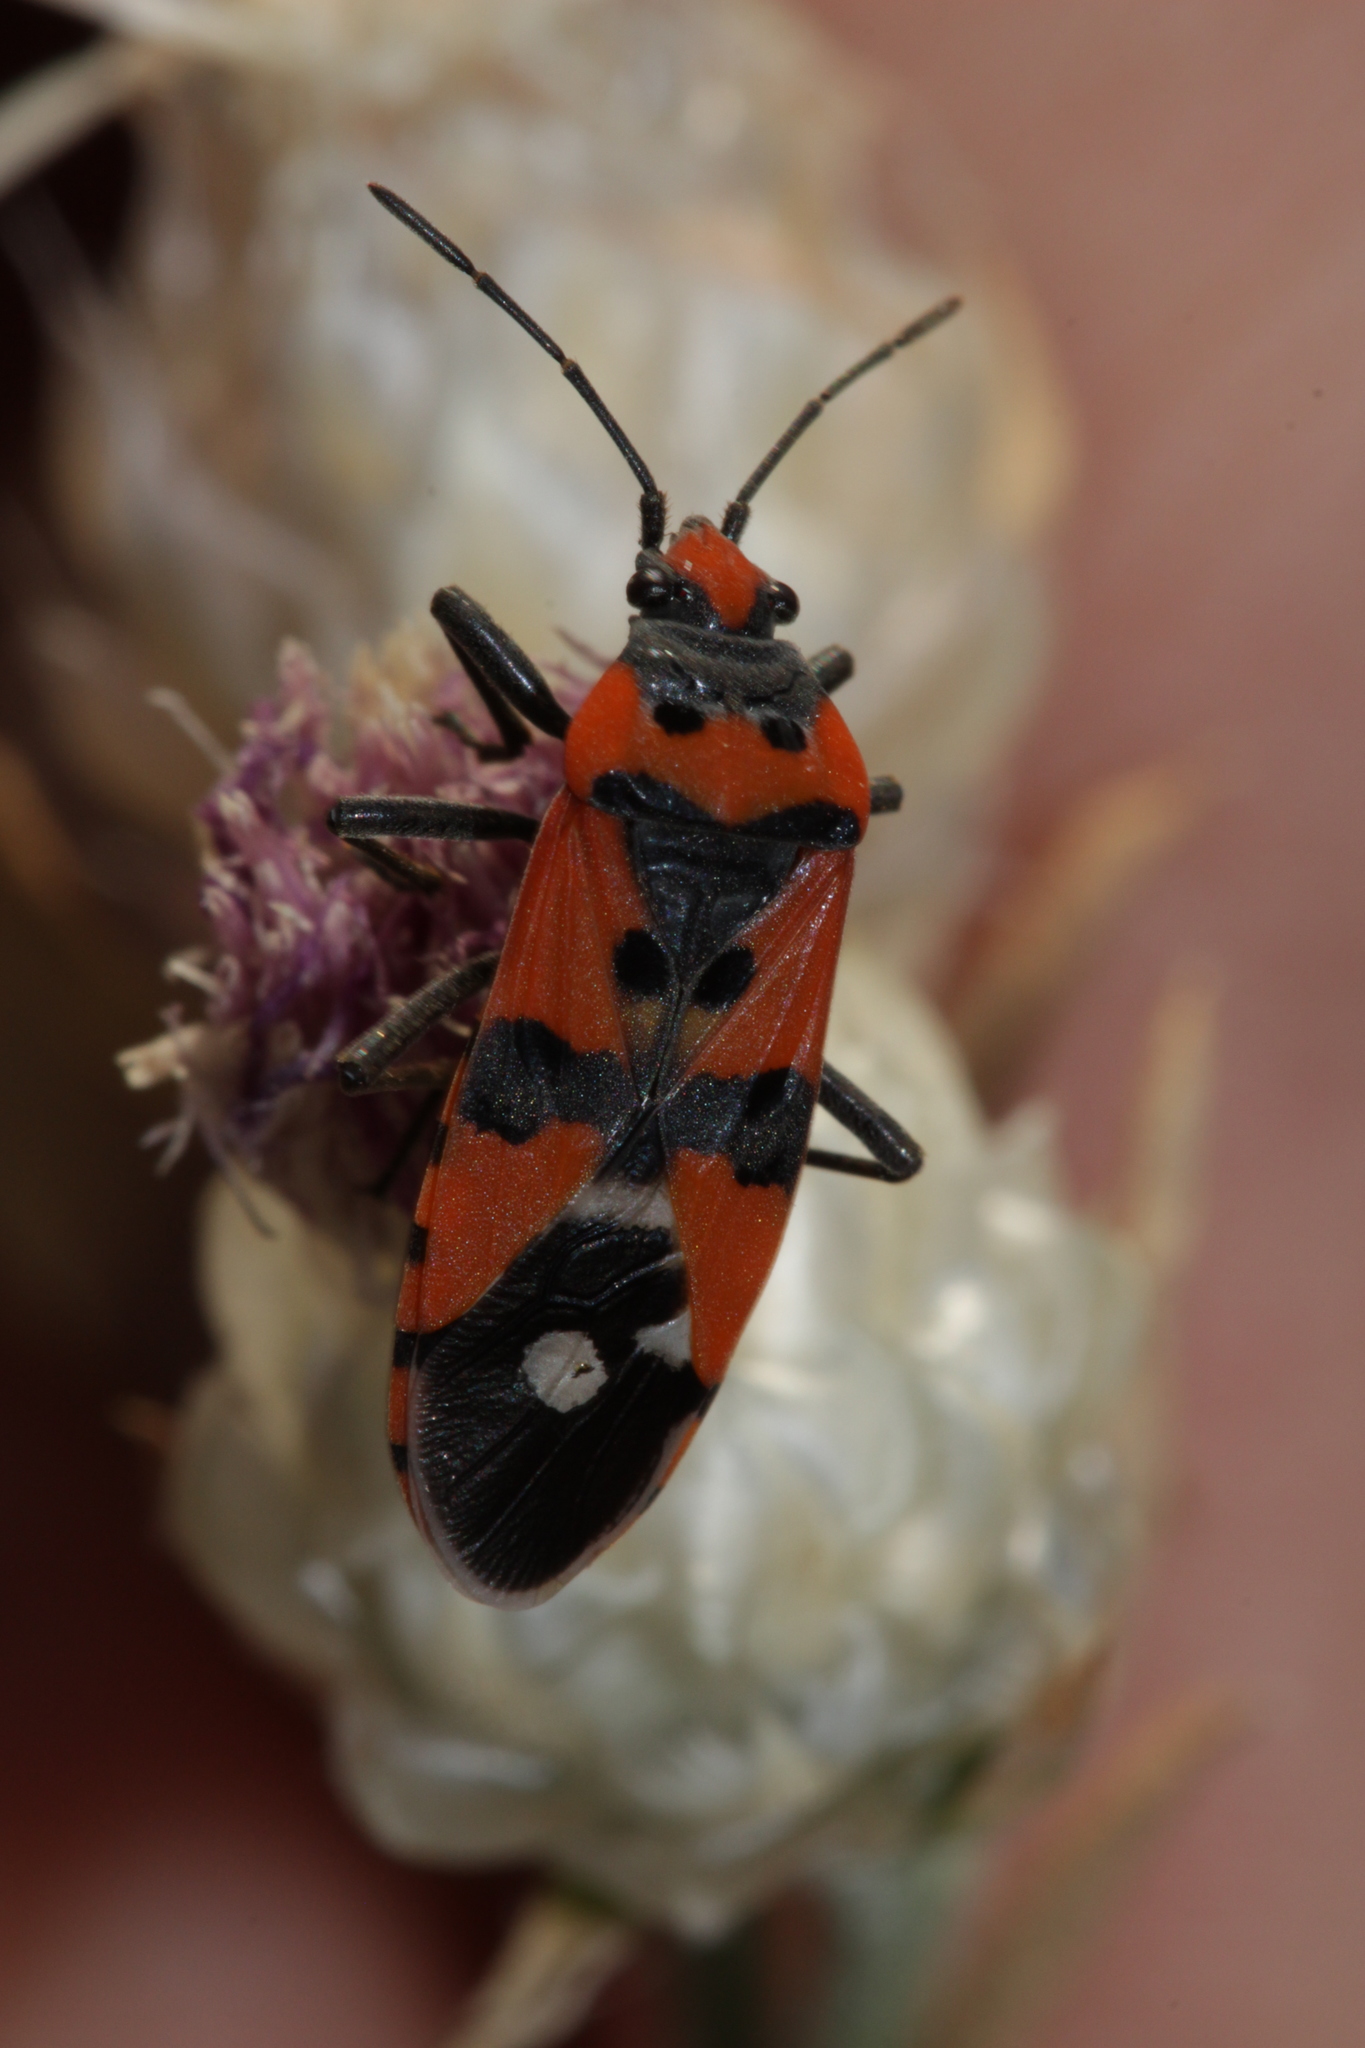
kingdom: Animalia
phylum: Arthropoda
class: Insecta
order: Hemiptera
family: Lygaeidae
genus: Lygaeus
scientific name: Lygaeus simulans
